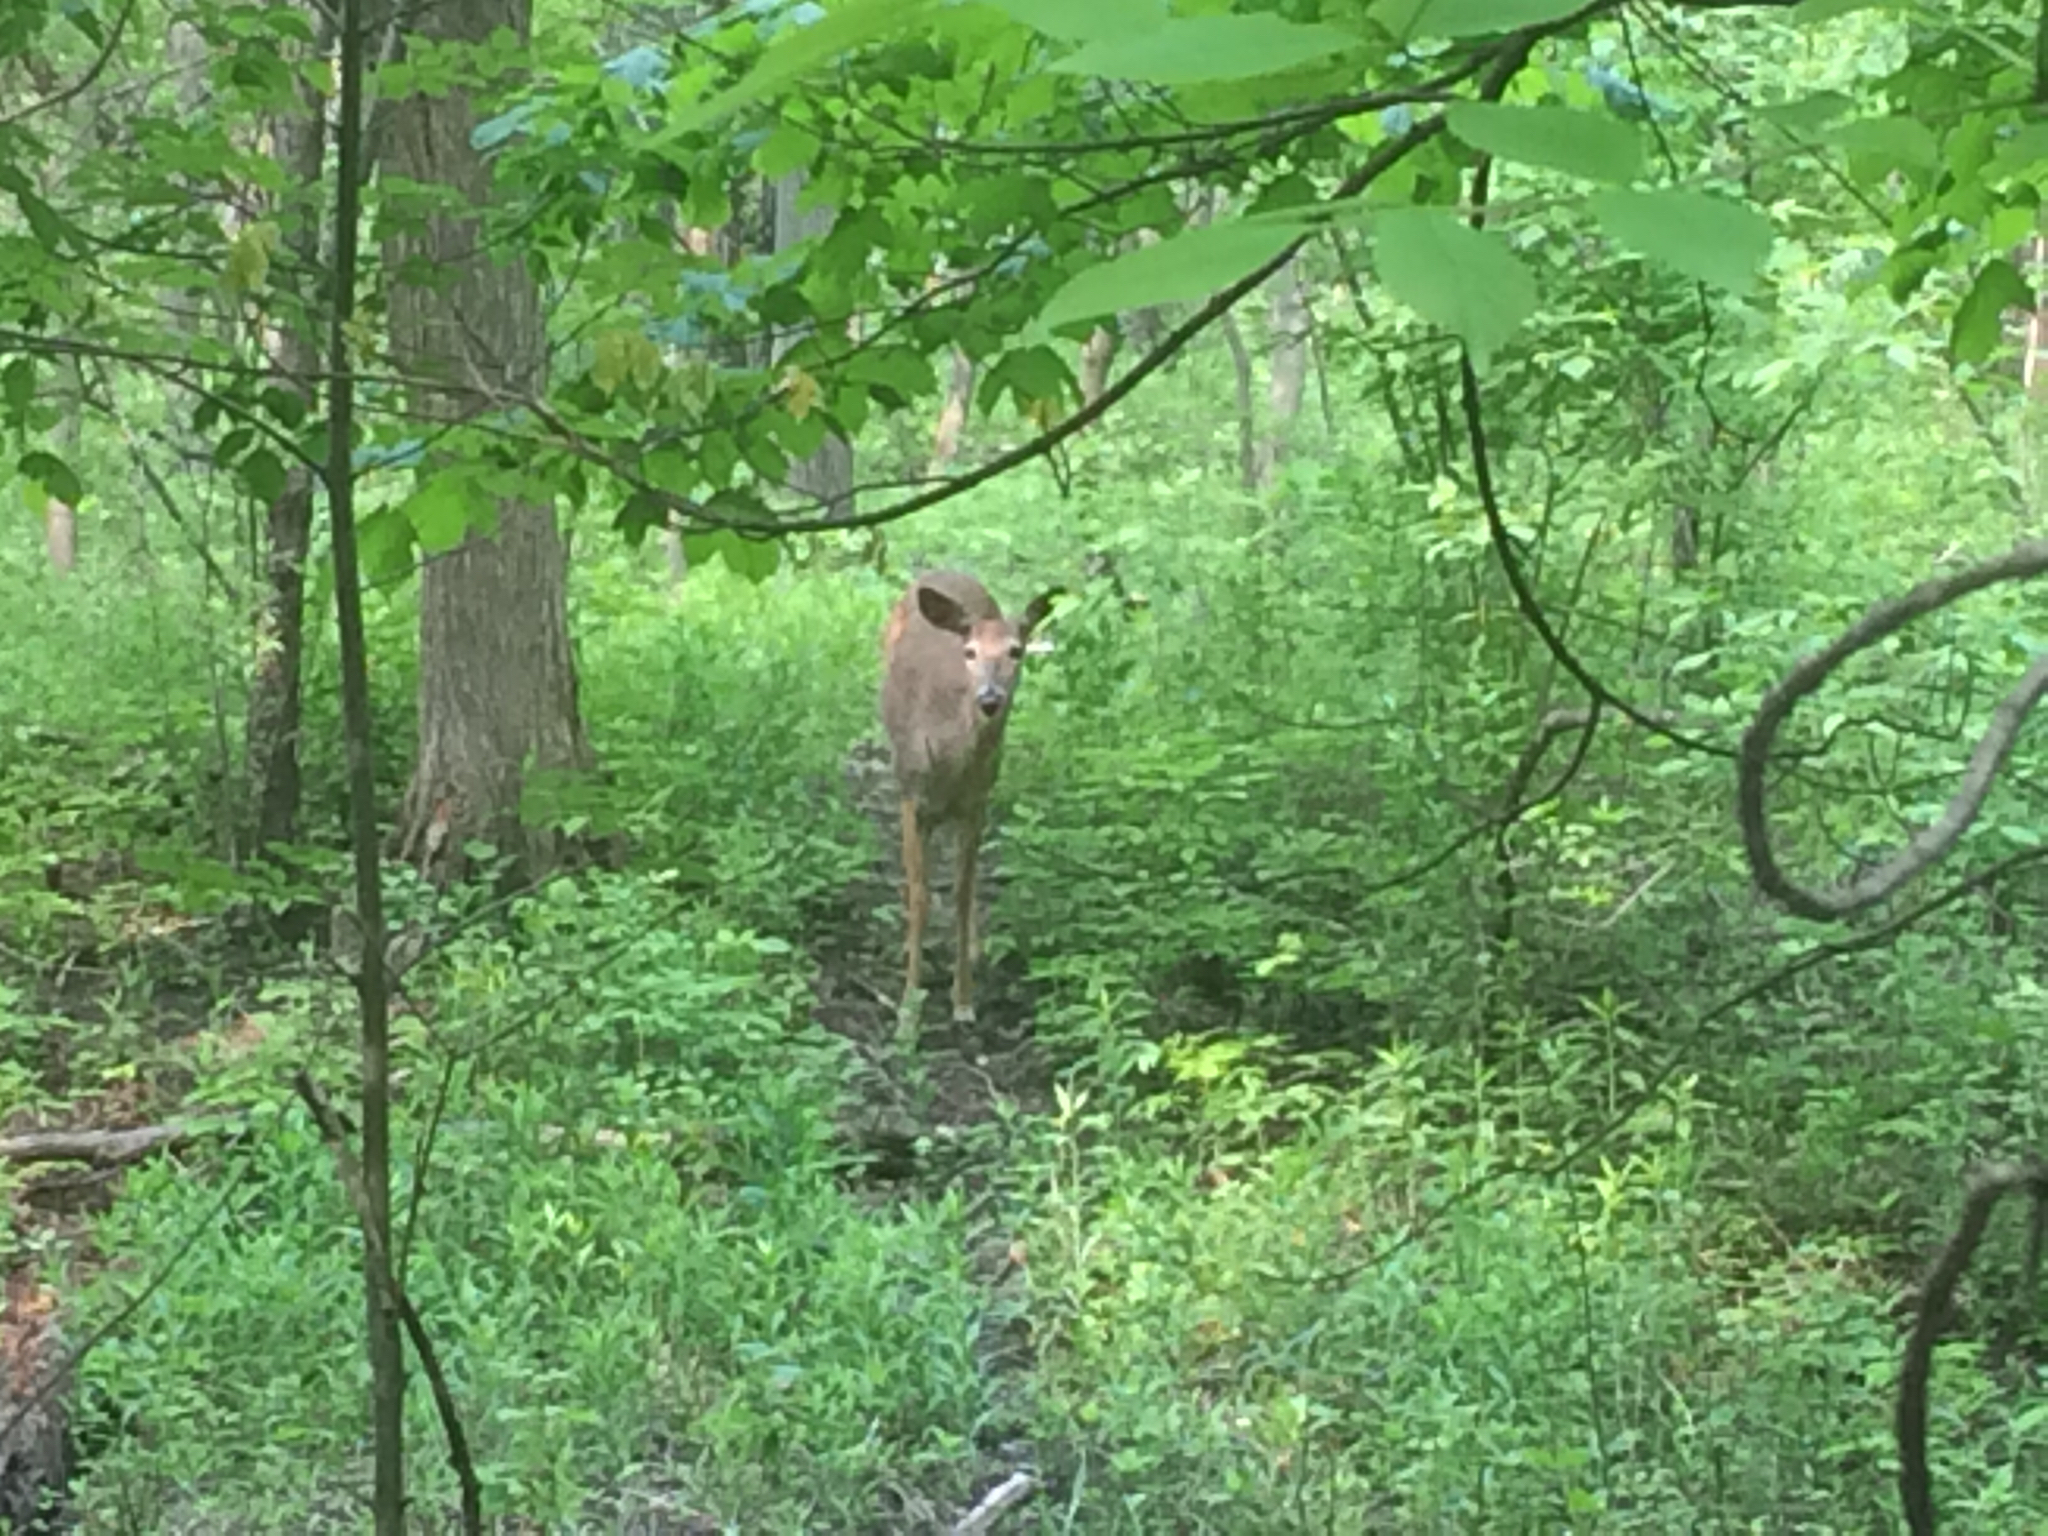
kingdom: Animalia
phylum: Chordata
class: Mammalia
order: Artiodactyla
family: Cervidae
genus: Odocoileus
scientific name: Odocoileus virginianus
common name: White-tailed deer
